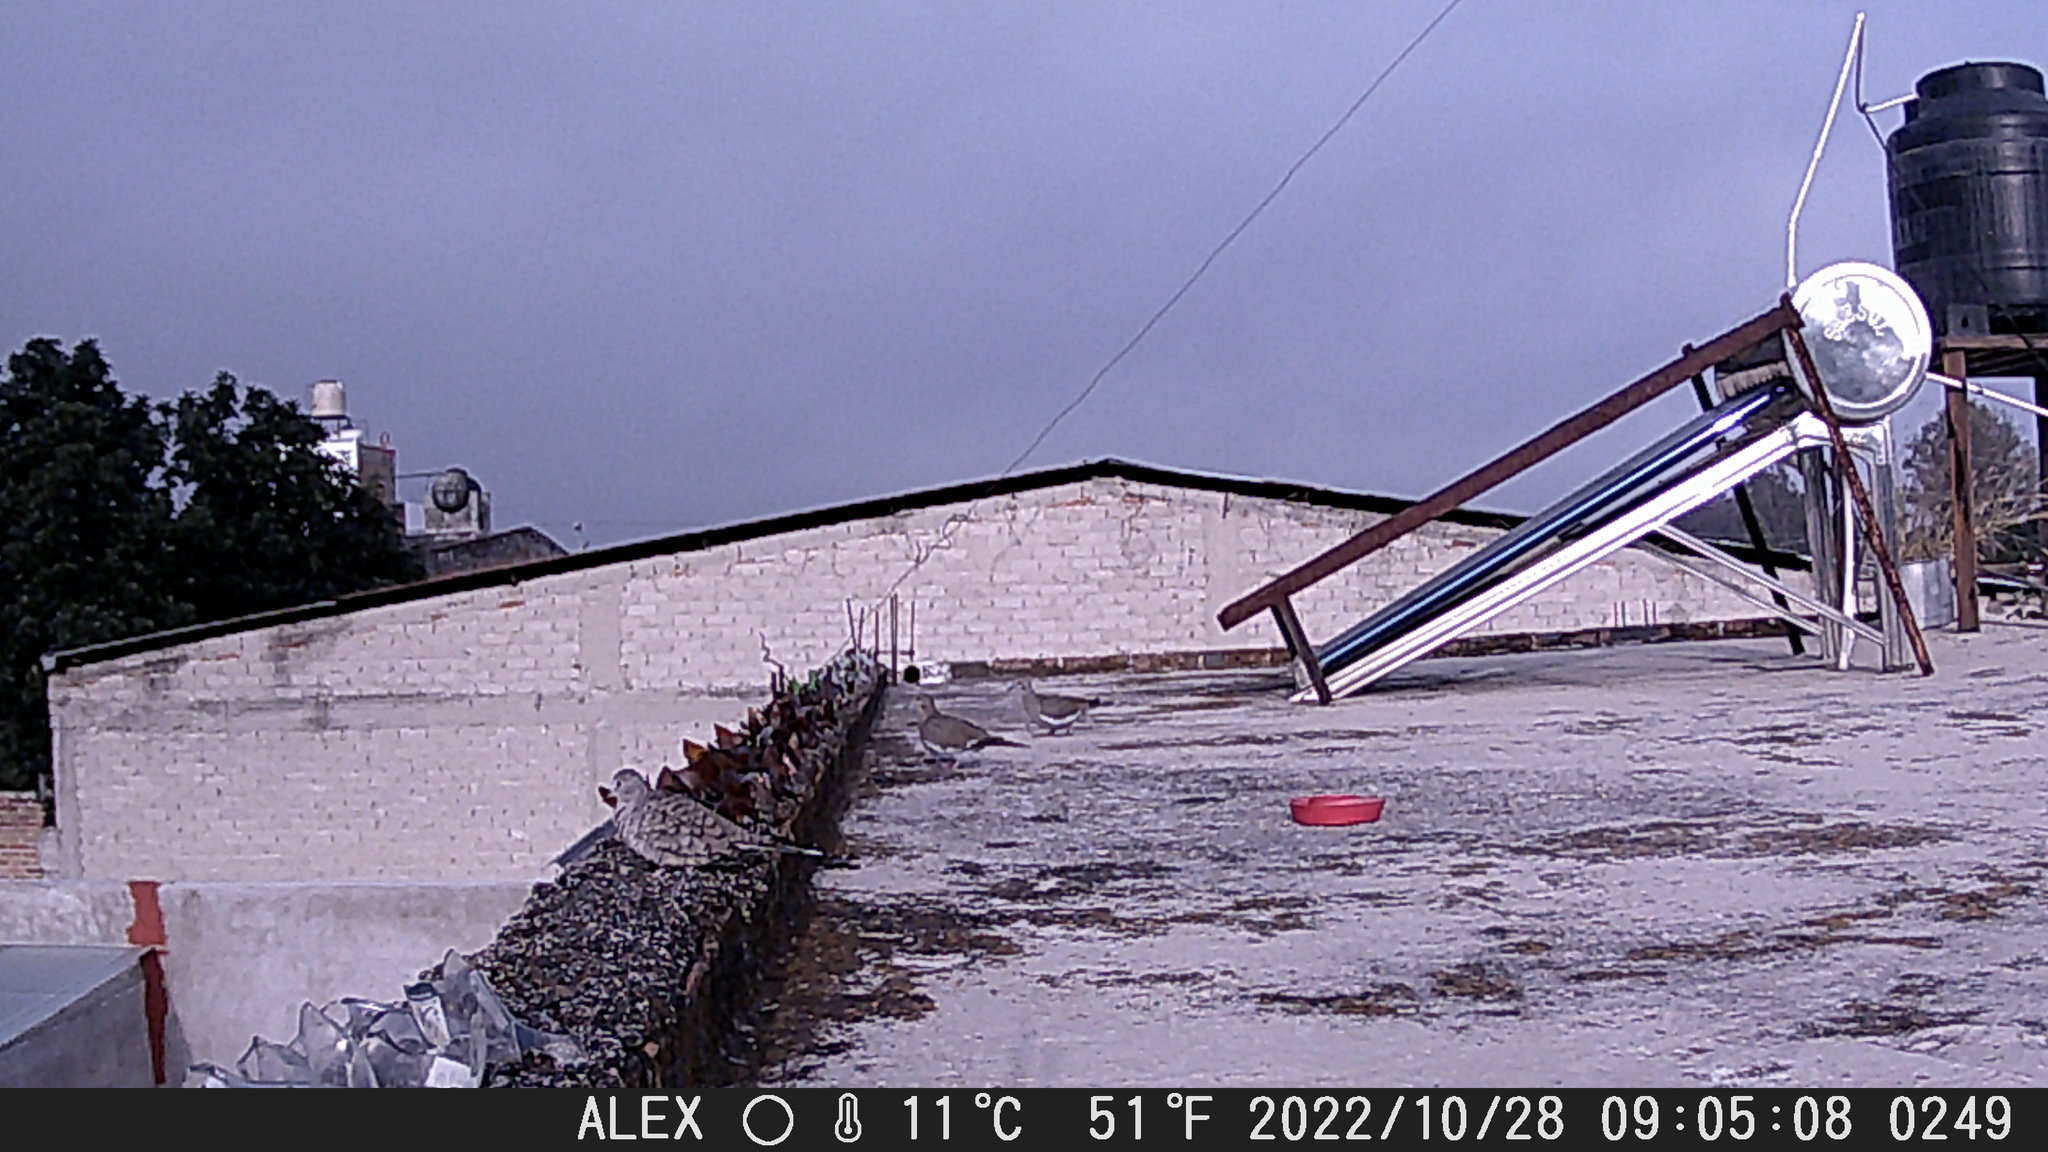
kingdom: Animalia
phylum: Chordata
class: Aves
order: Columbiformes
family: Columbidae
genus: Columbina
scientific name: Columbina inca
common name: Inca dove
